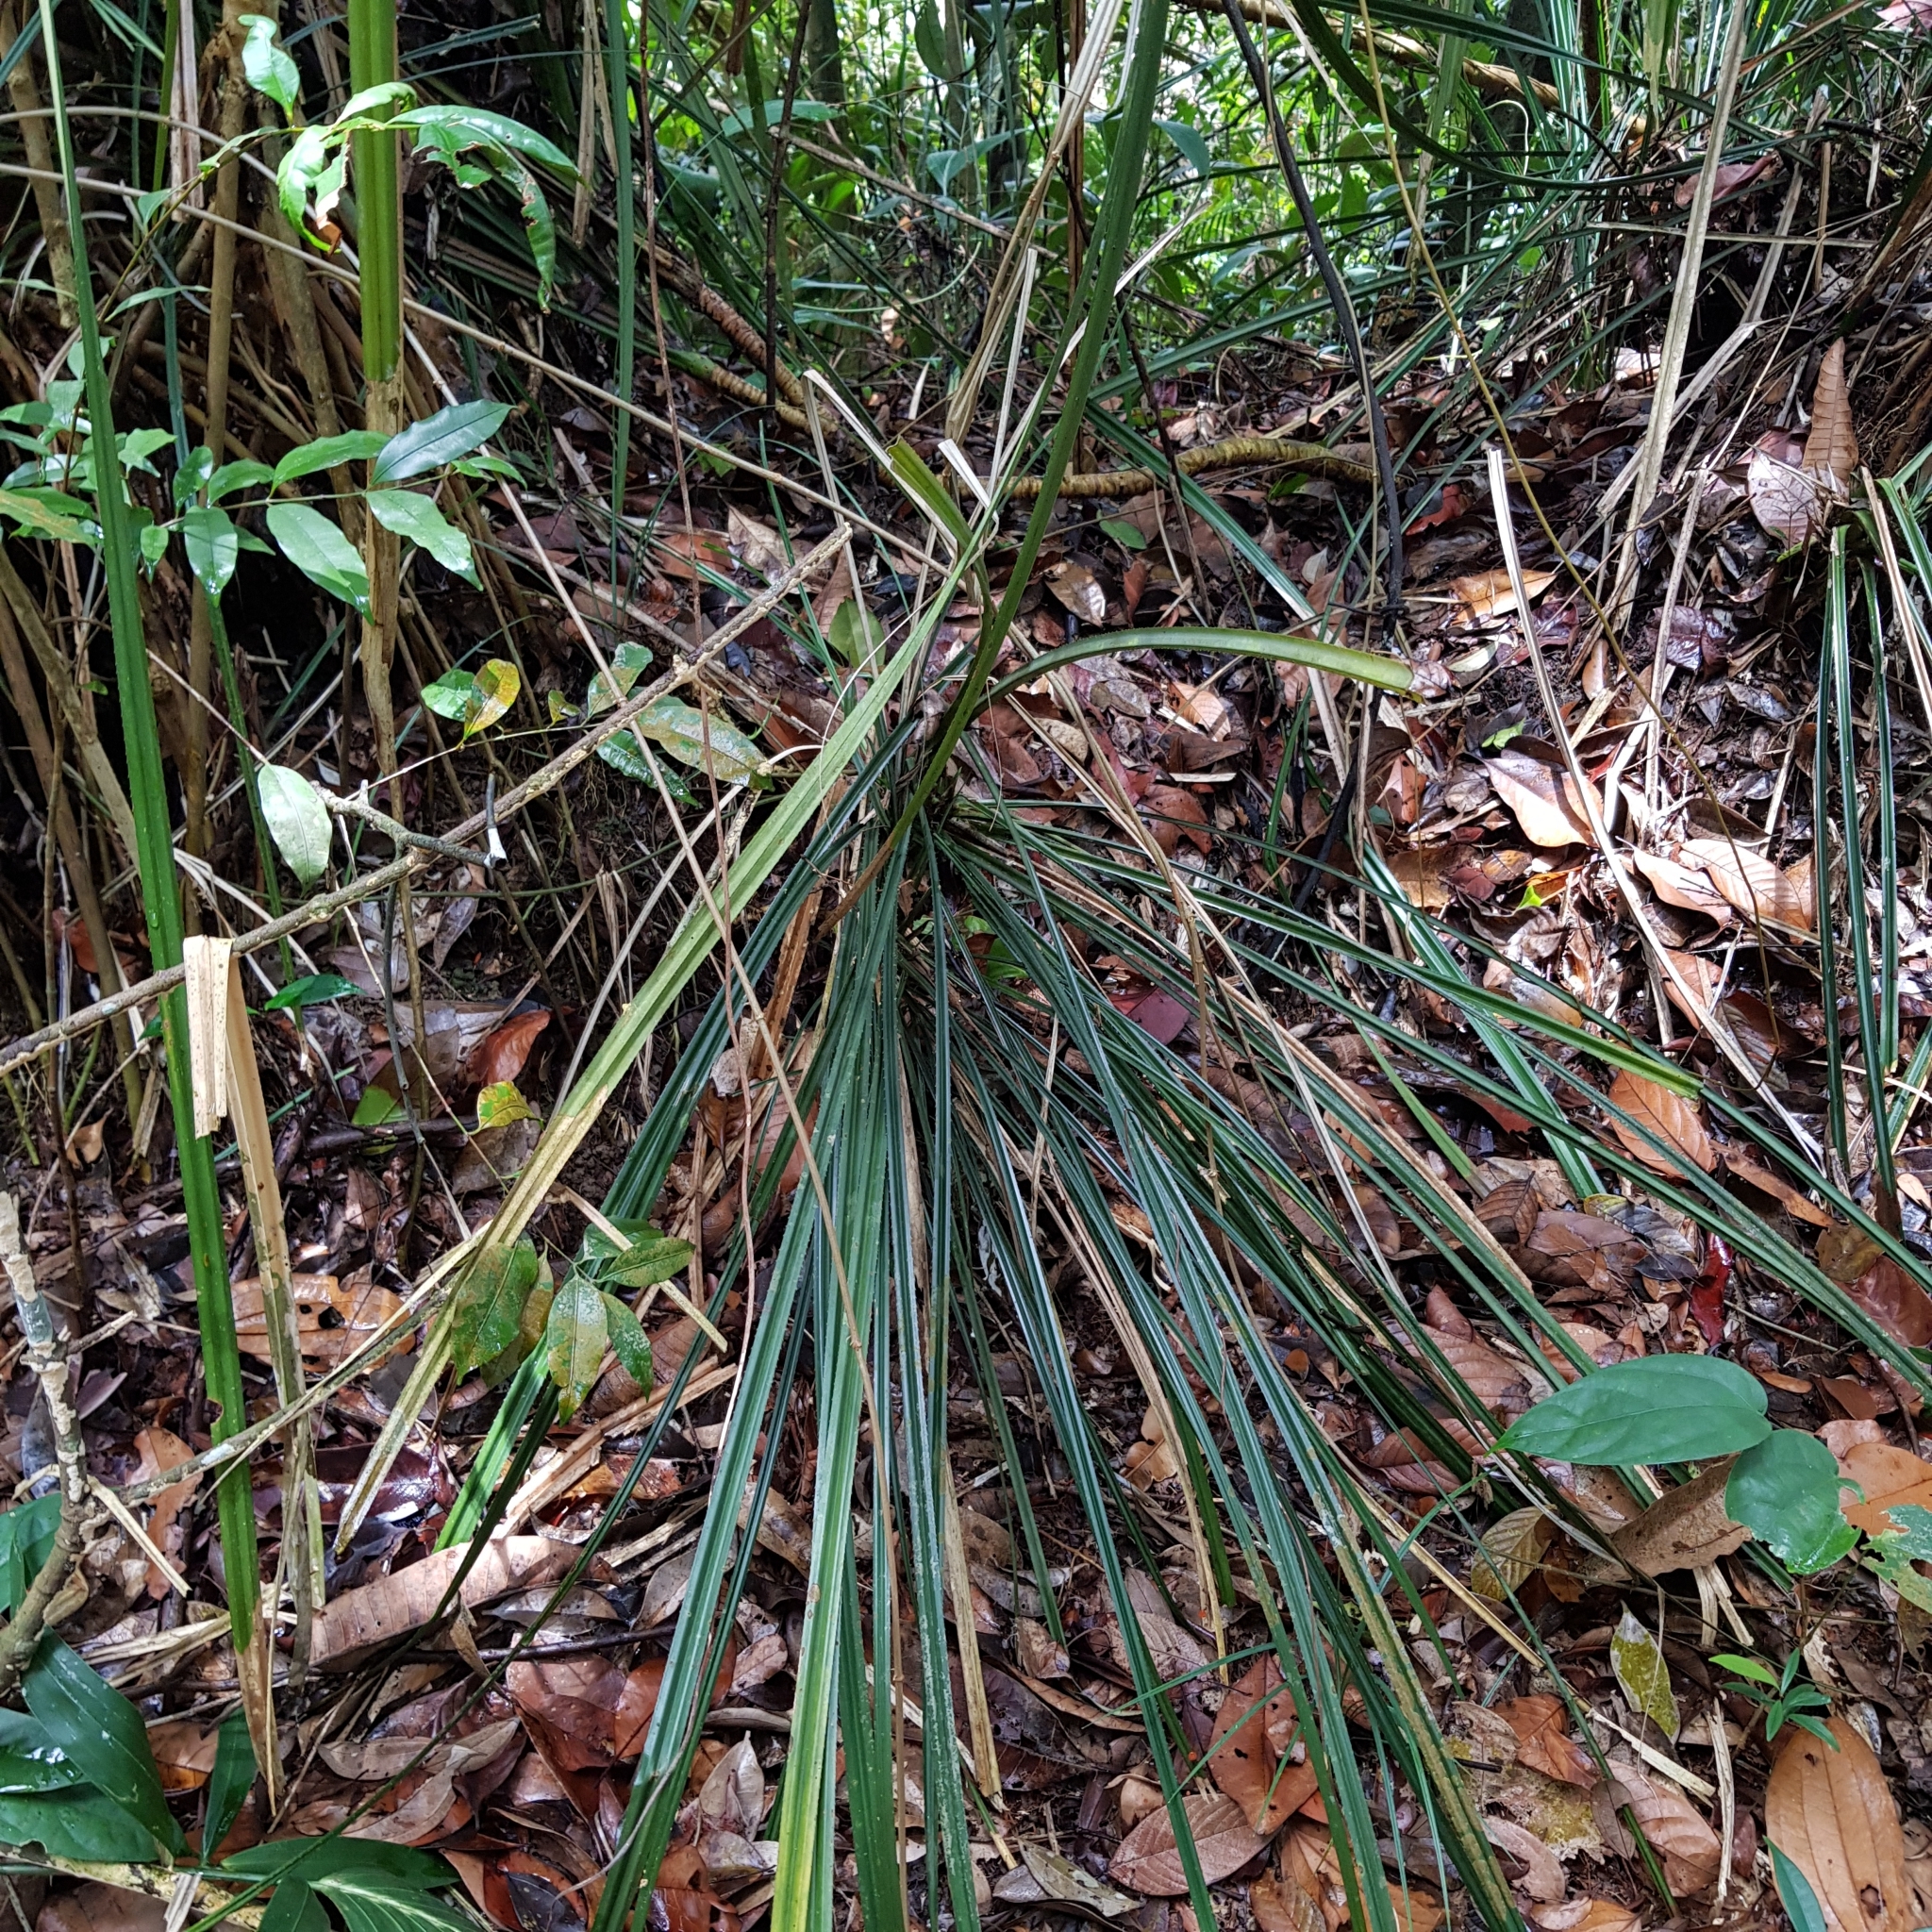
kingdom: Plantae
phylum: Tracheophyta
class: Liliopsida
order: Pandanales
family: Pandanaceae
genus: Pandanus
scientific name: Pandanus ornatus
